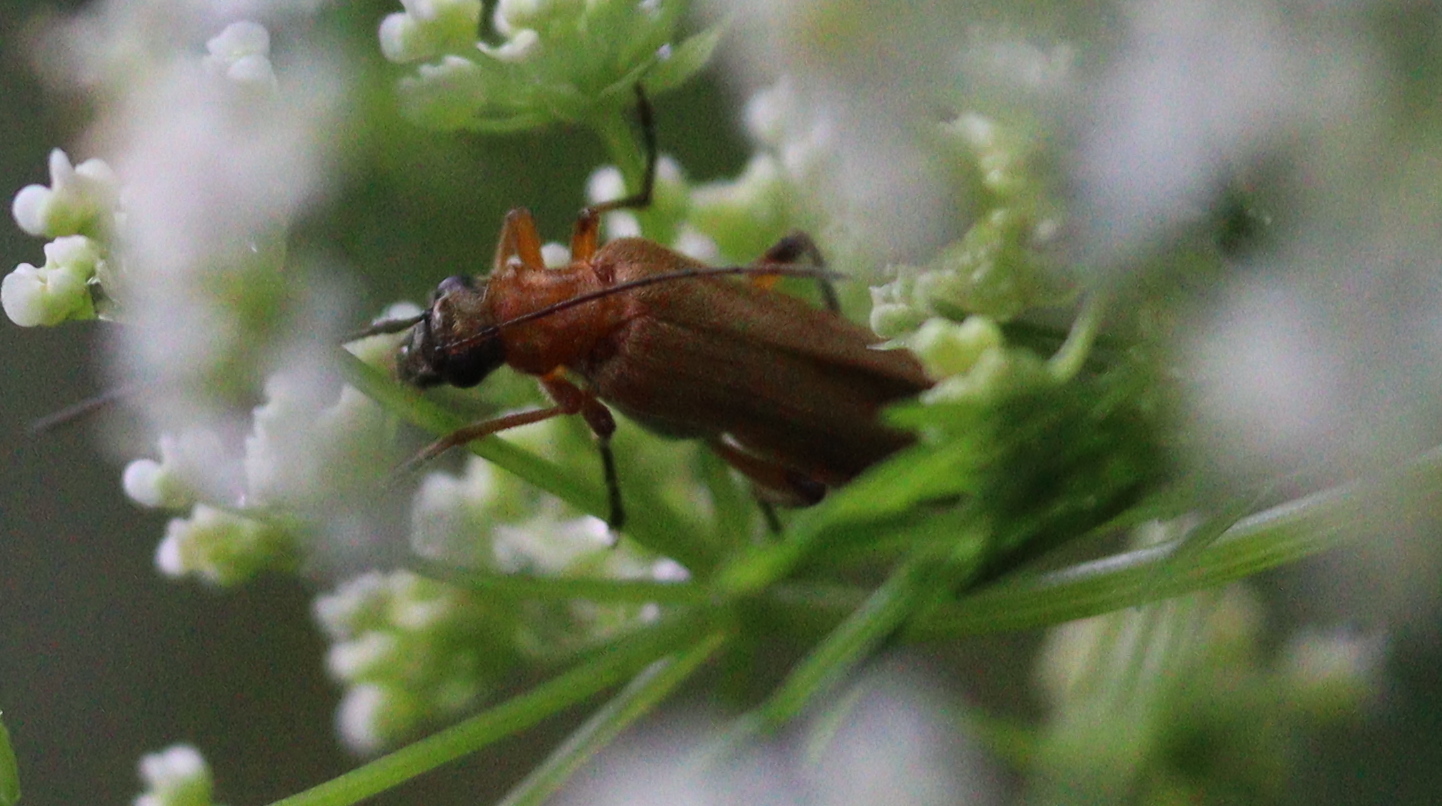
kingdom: Animalia
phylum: Arthropoda
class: Insecta
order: Coleoptera
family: Oedemeridae
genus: Oedemera
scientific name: Oedemera podagrariae
